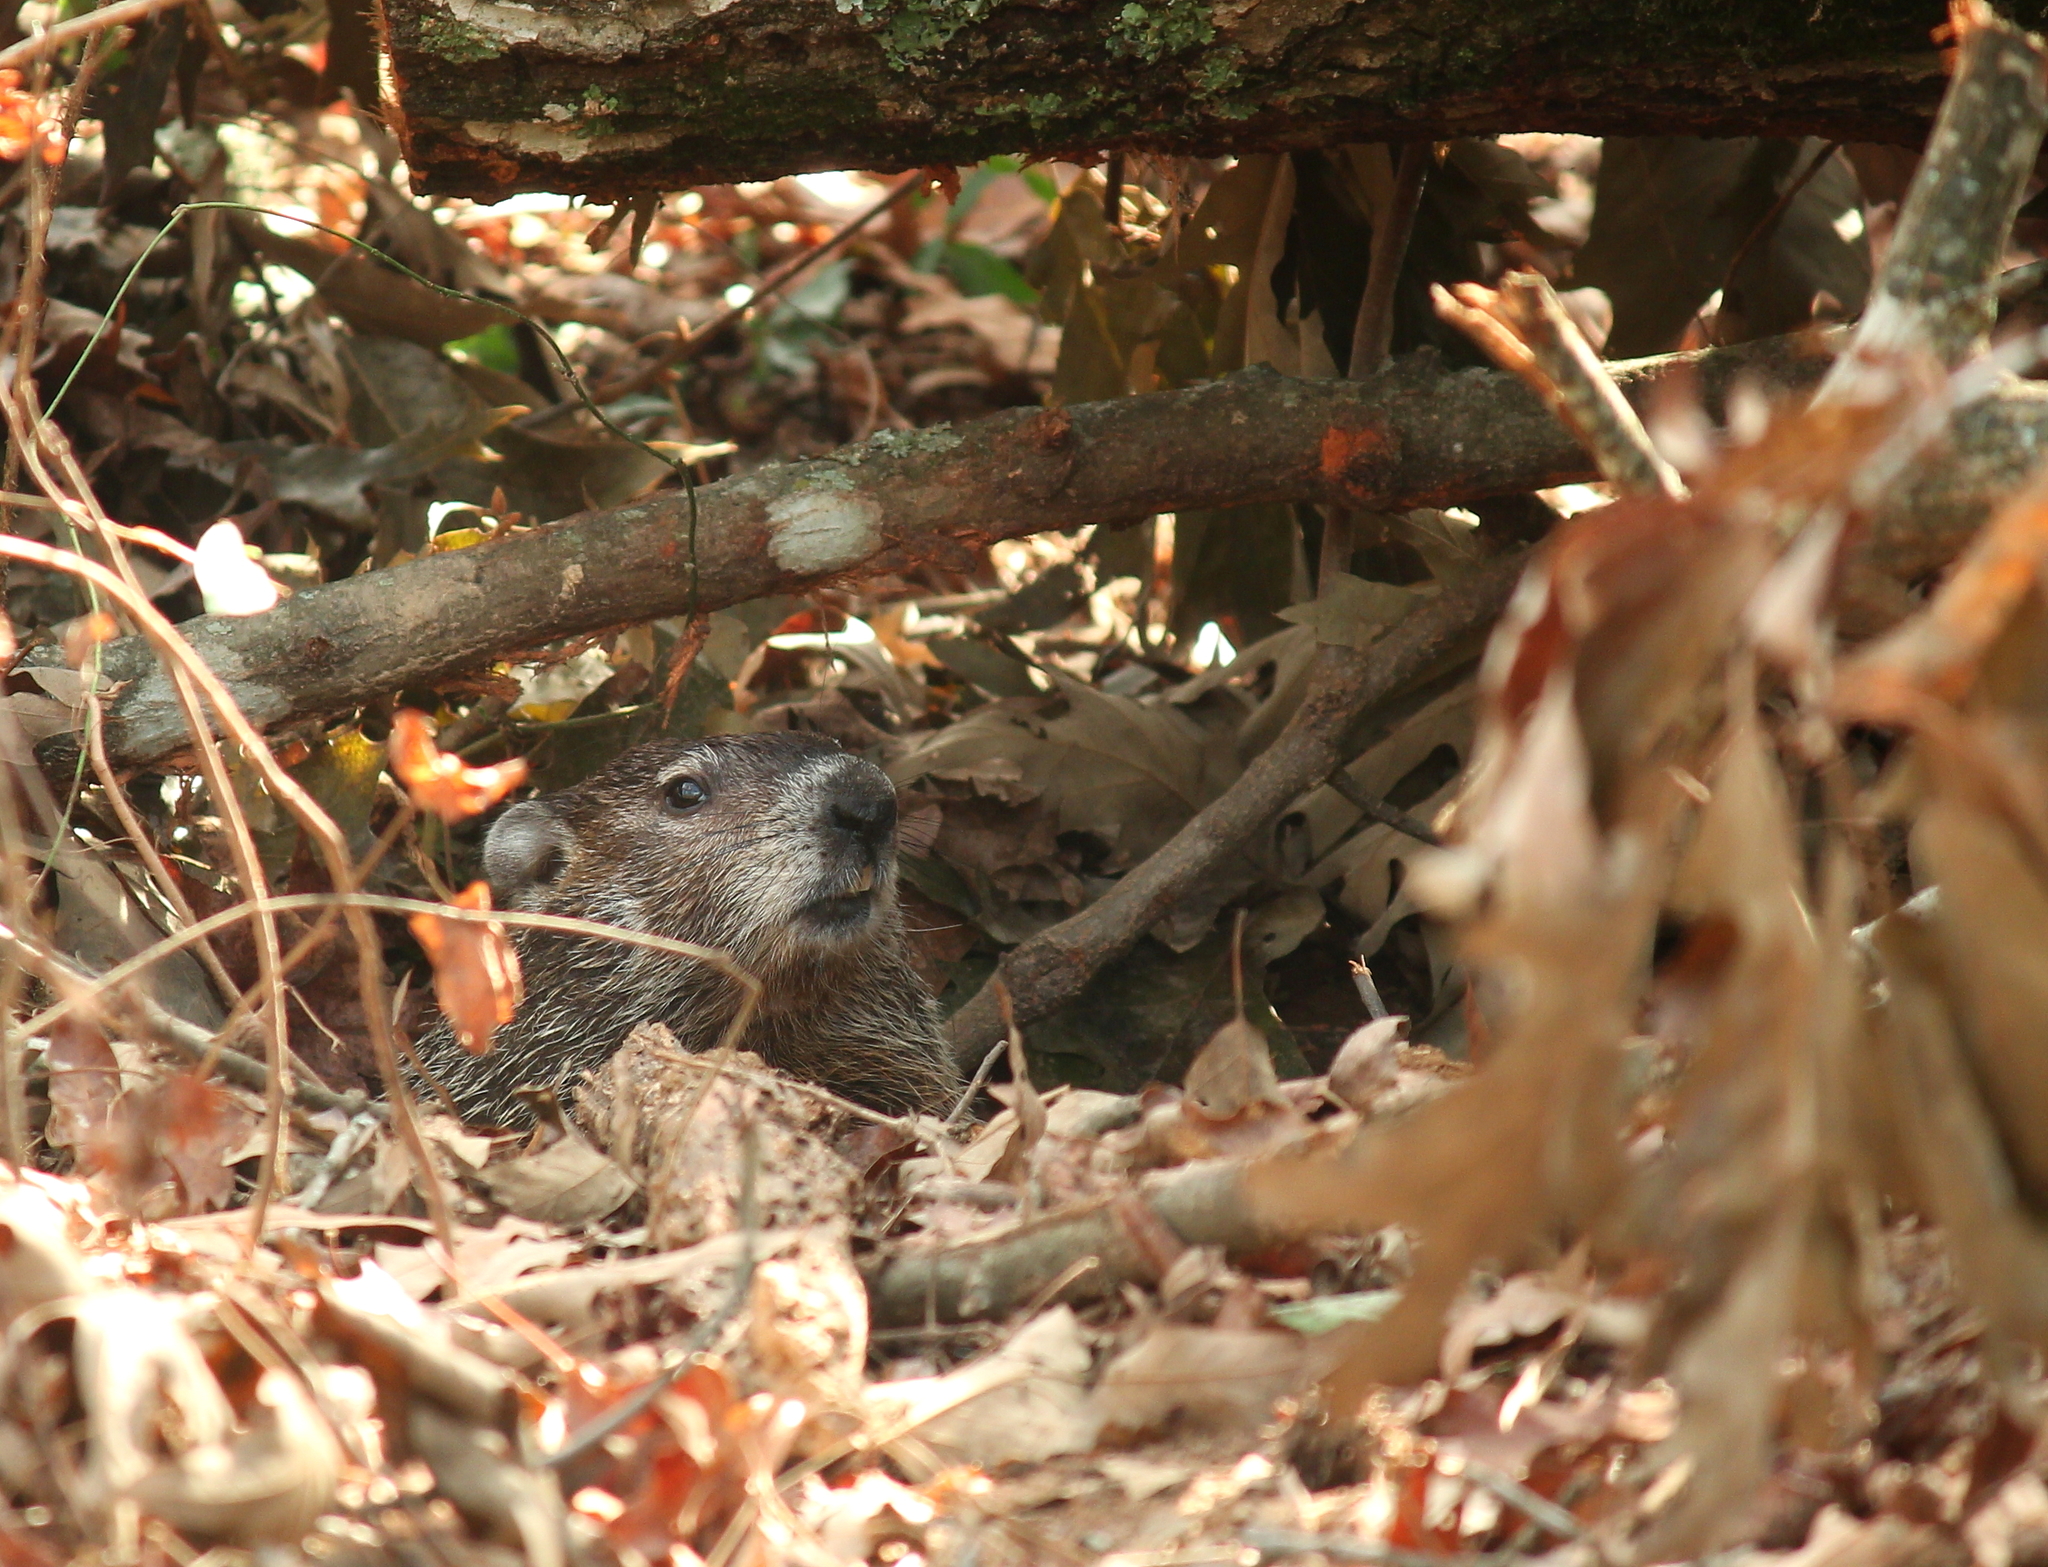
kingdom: Animalia
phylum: Chordata
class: Mammalia
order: Rodentia
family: Sciuridae
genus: Marmota
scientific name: Marmota monax
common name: Groundhog
